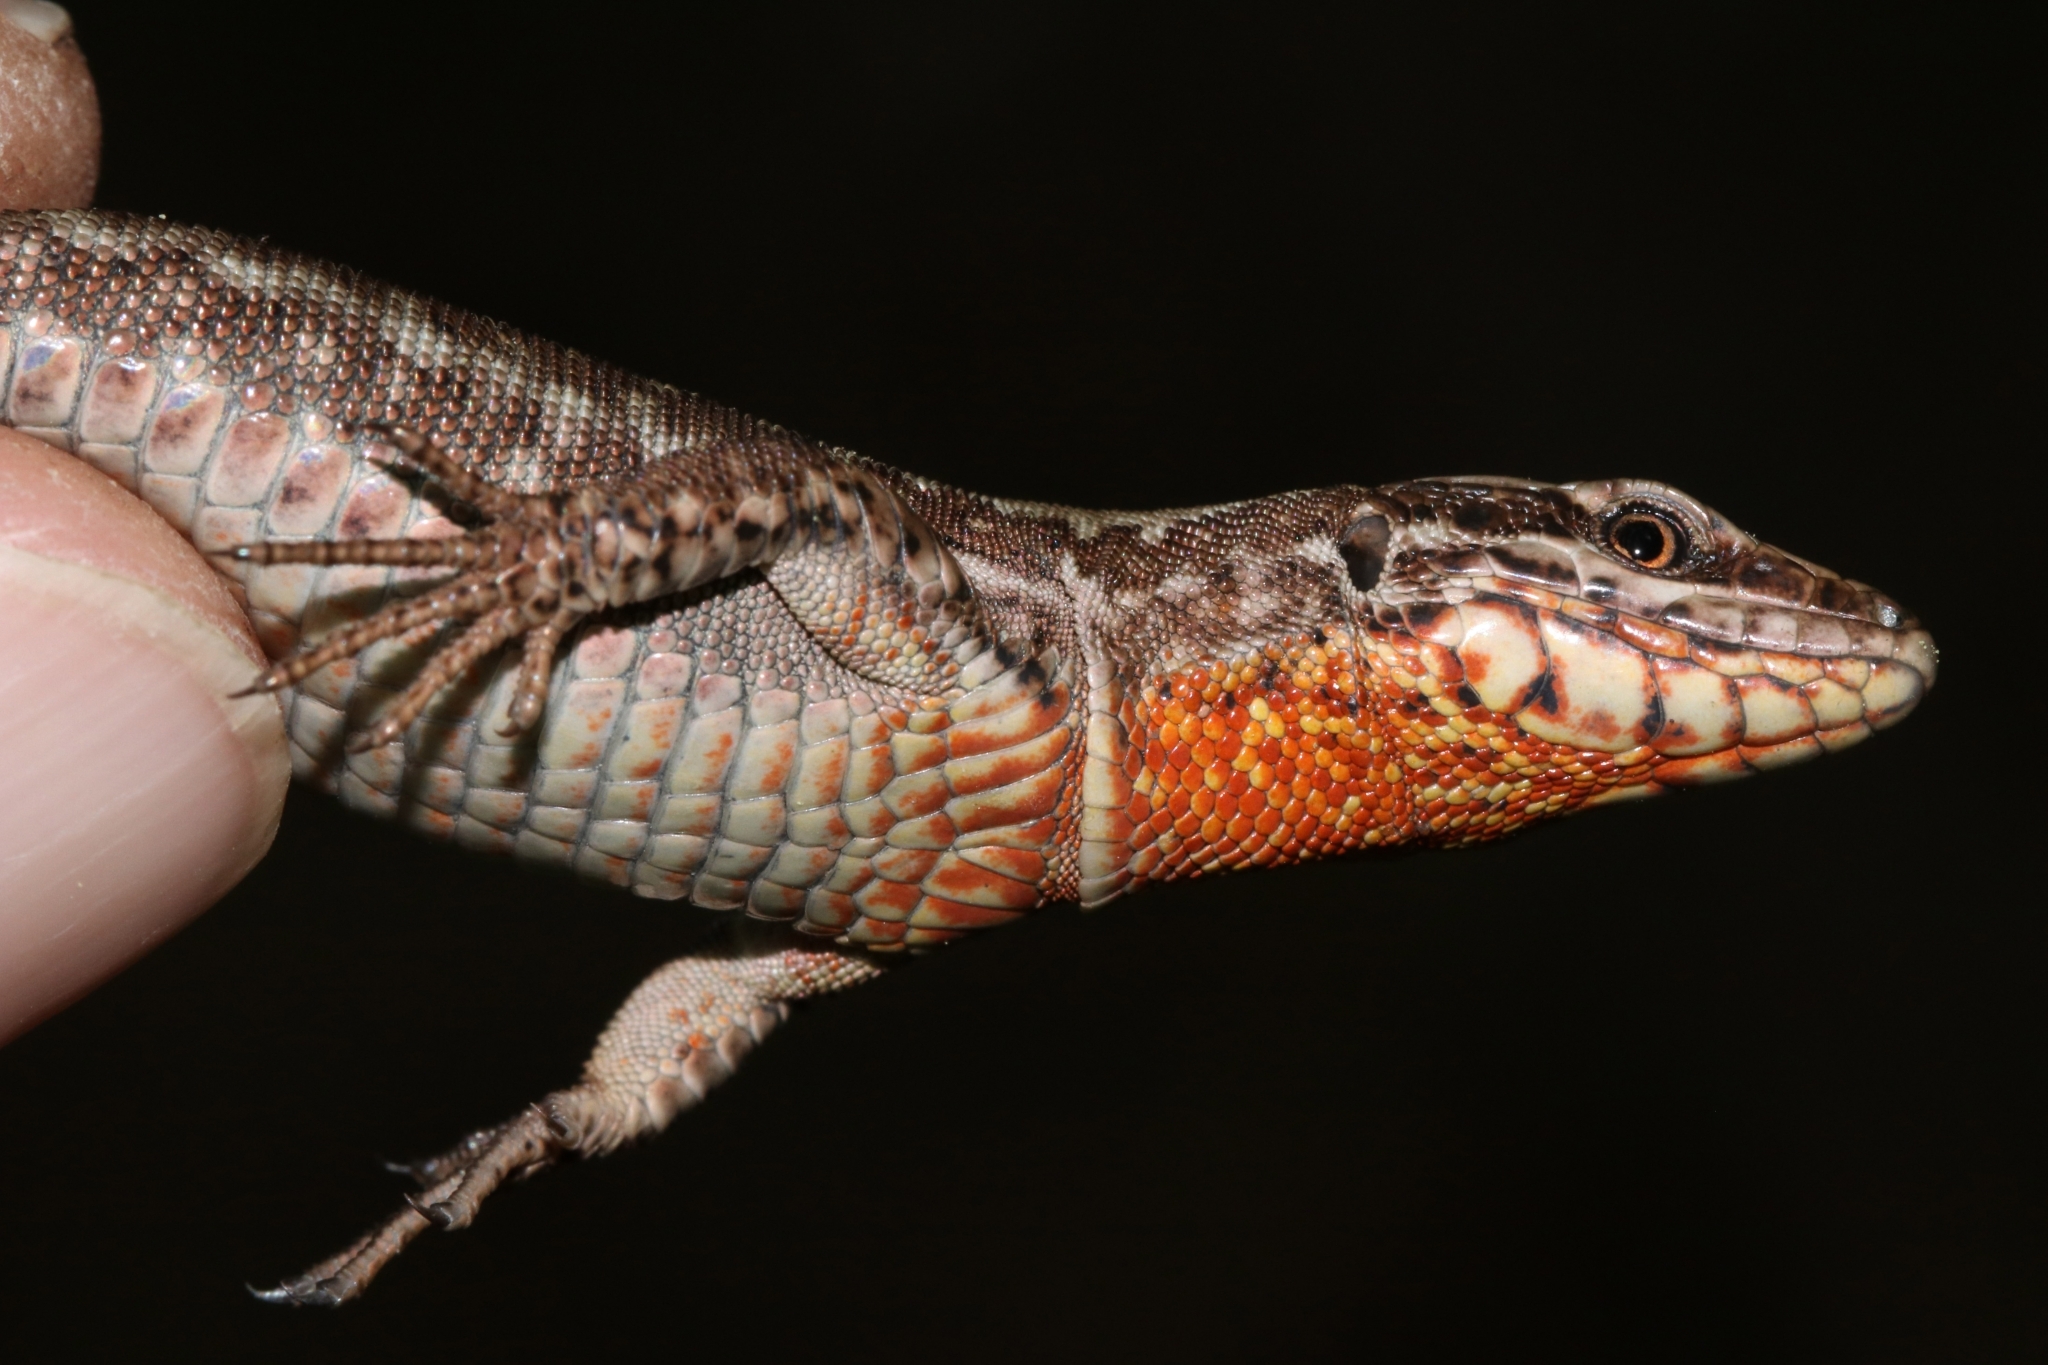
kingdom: Animalia
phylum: Chordata
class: Squamata
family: Lacertidae
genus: Podarcis
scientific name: Podarcis muralis
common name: Common wall lizard
